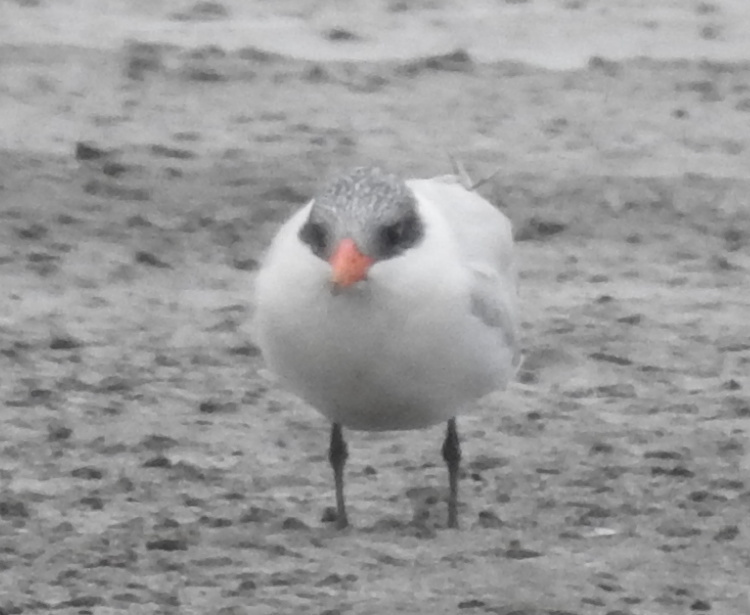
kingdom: Animalia
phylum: Chordata
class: Aves
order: Charadriiformes
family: Laridae
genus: Hydroprogne
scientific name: Hydroprogne caspia
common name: Caspian tern
